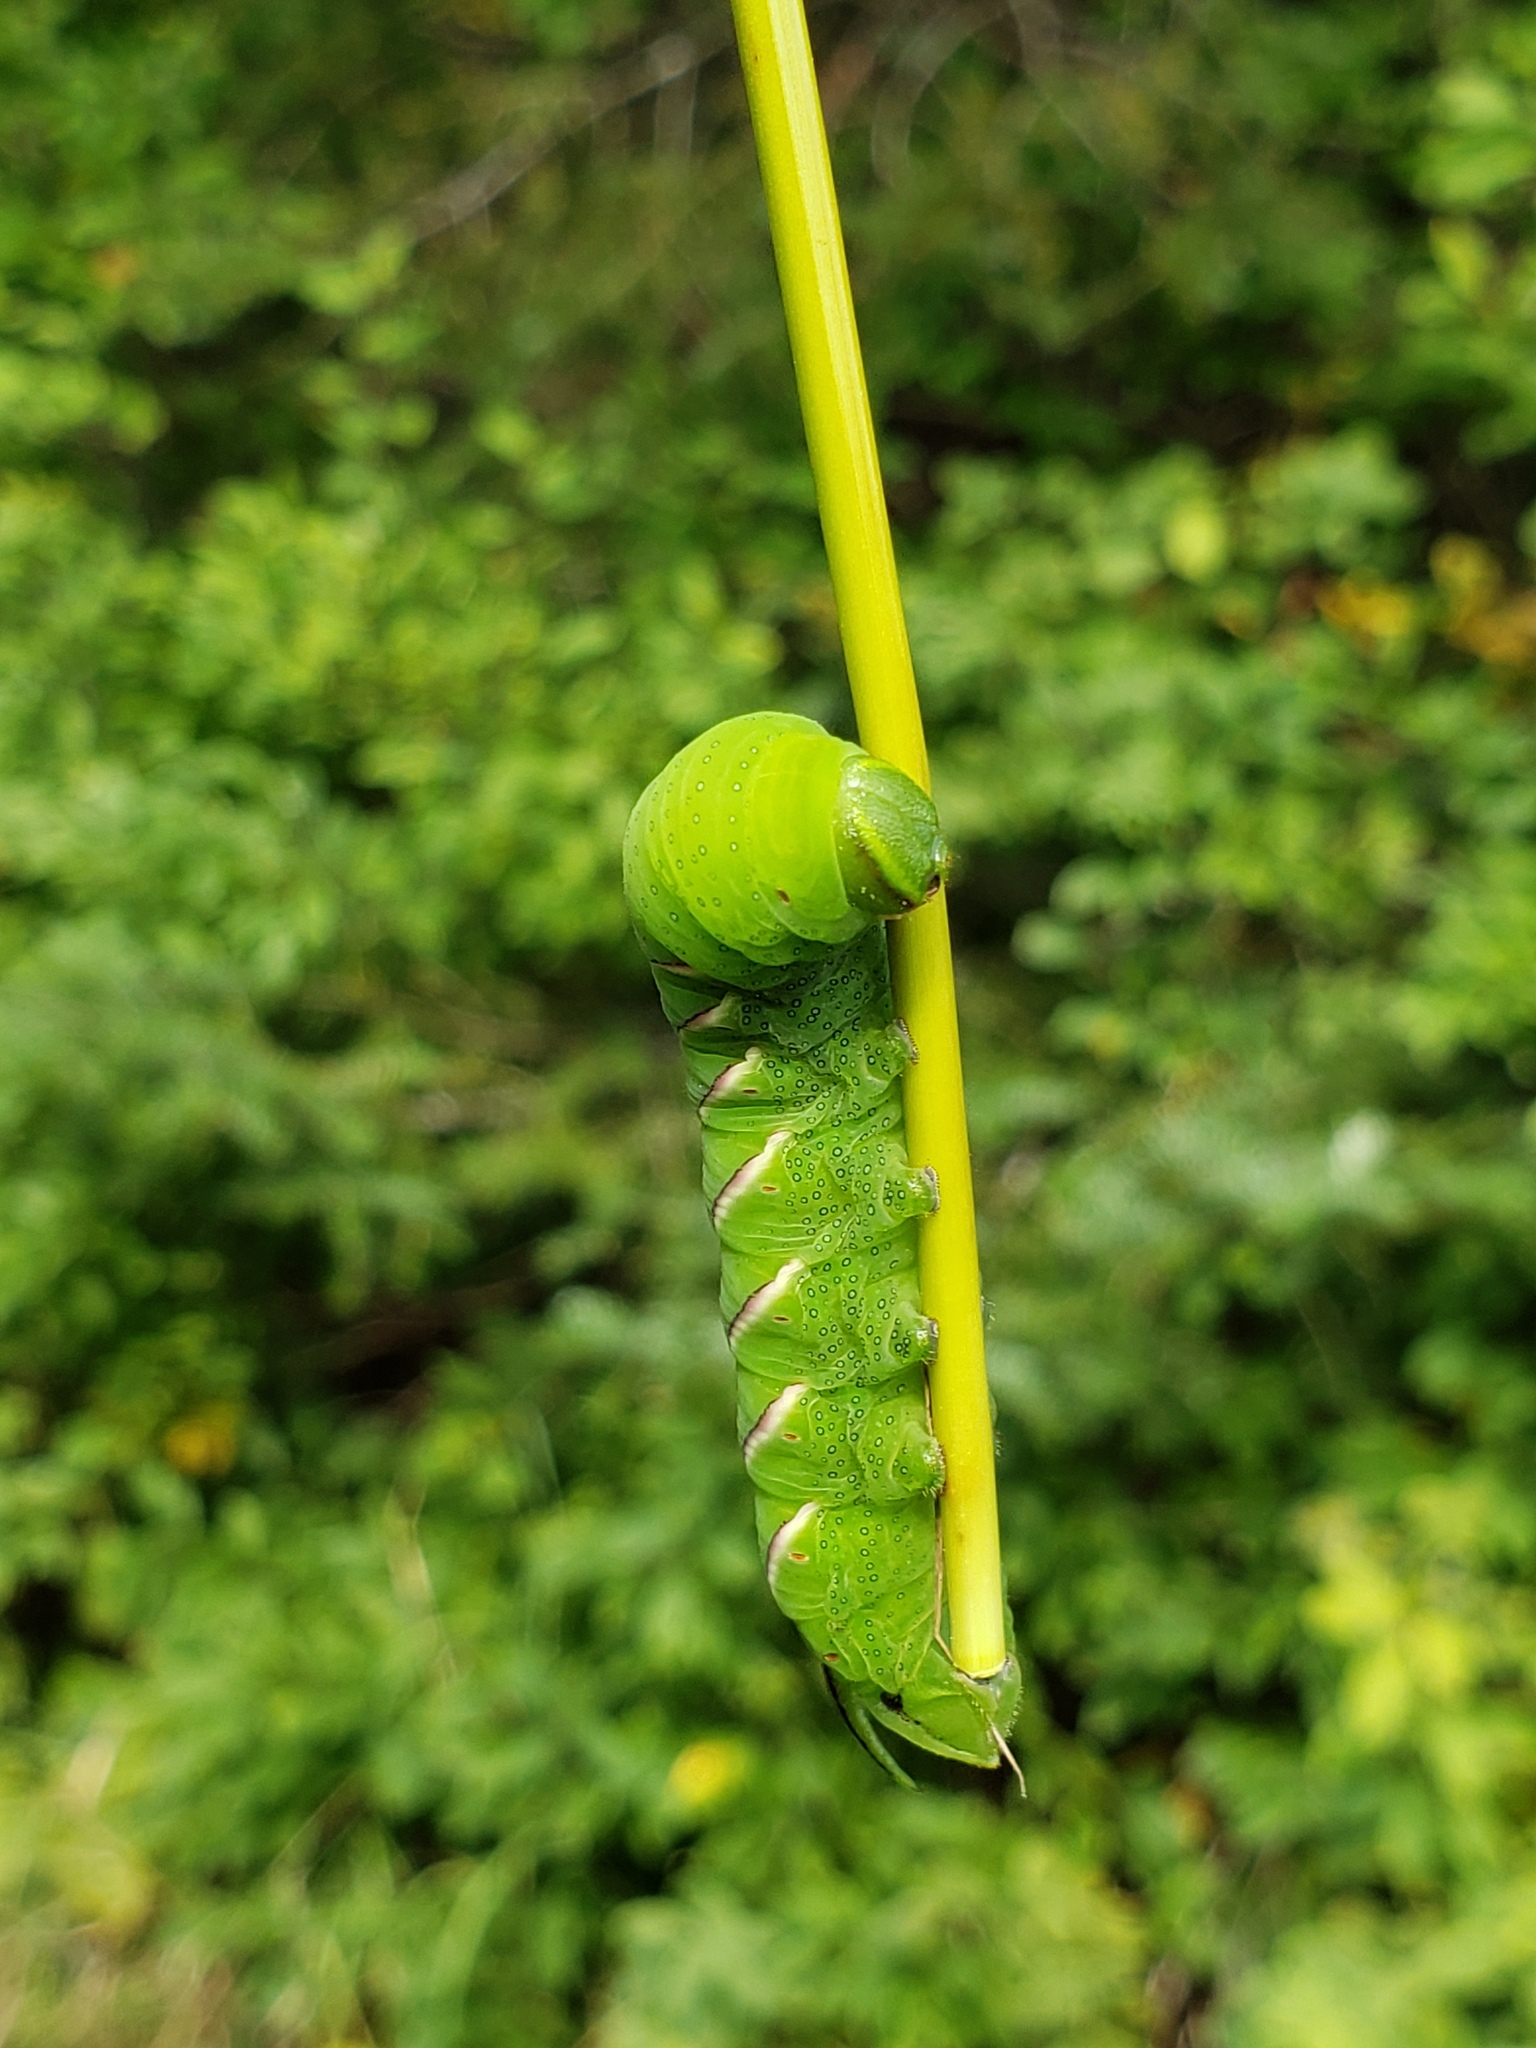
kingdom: Animalia
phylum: Arthropoda
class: Insecta
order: Lepidoptera
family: Sphingidae
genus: Sphinx
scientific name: Sphinx poecila
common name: Northern apple sphinx
